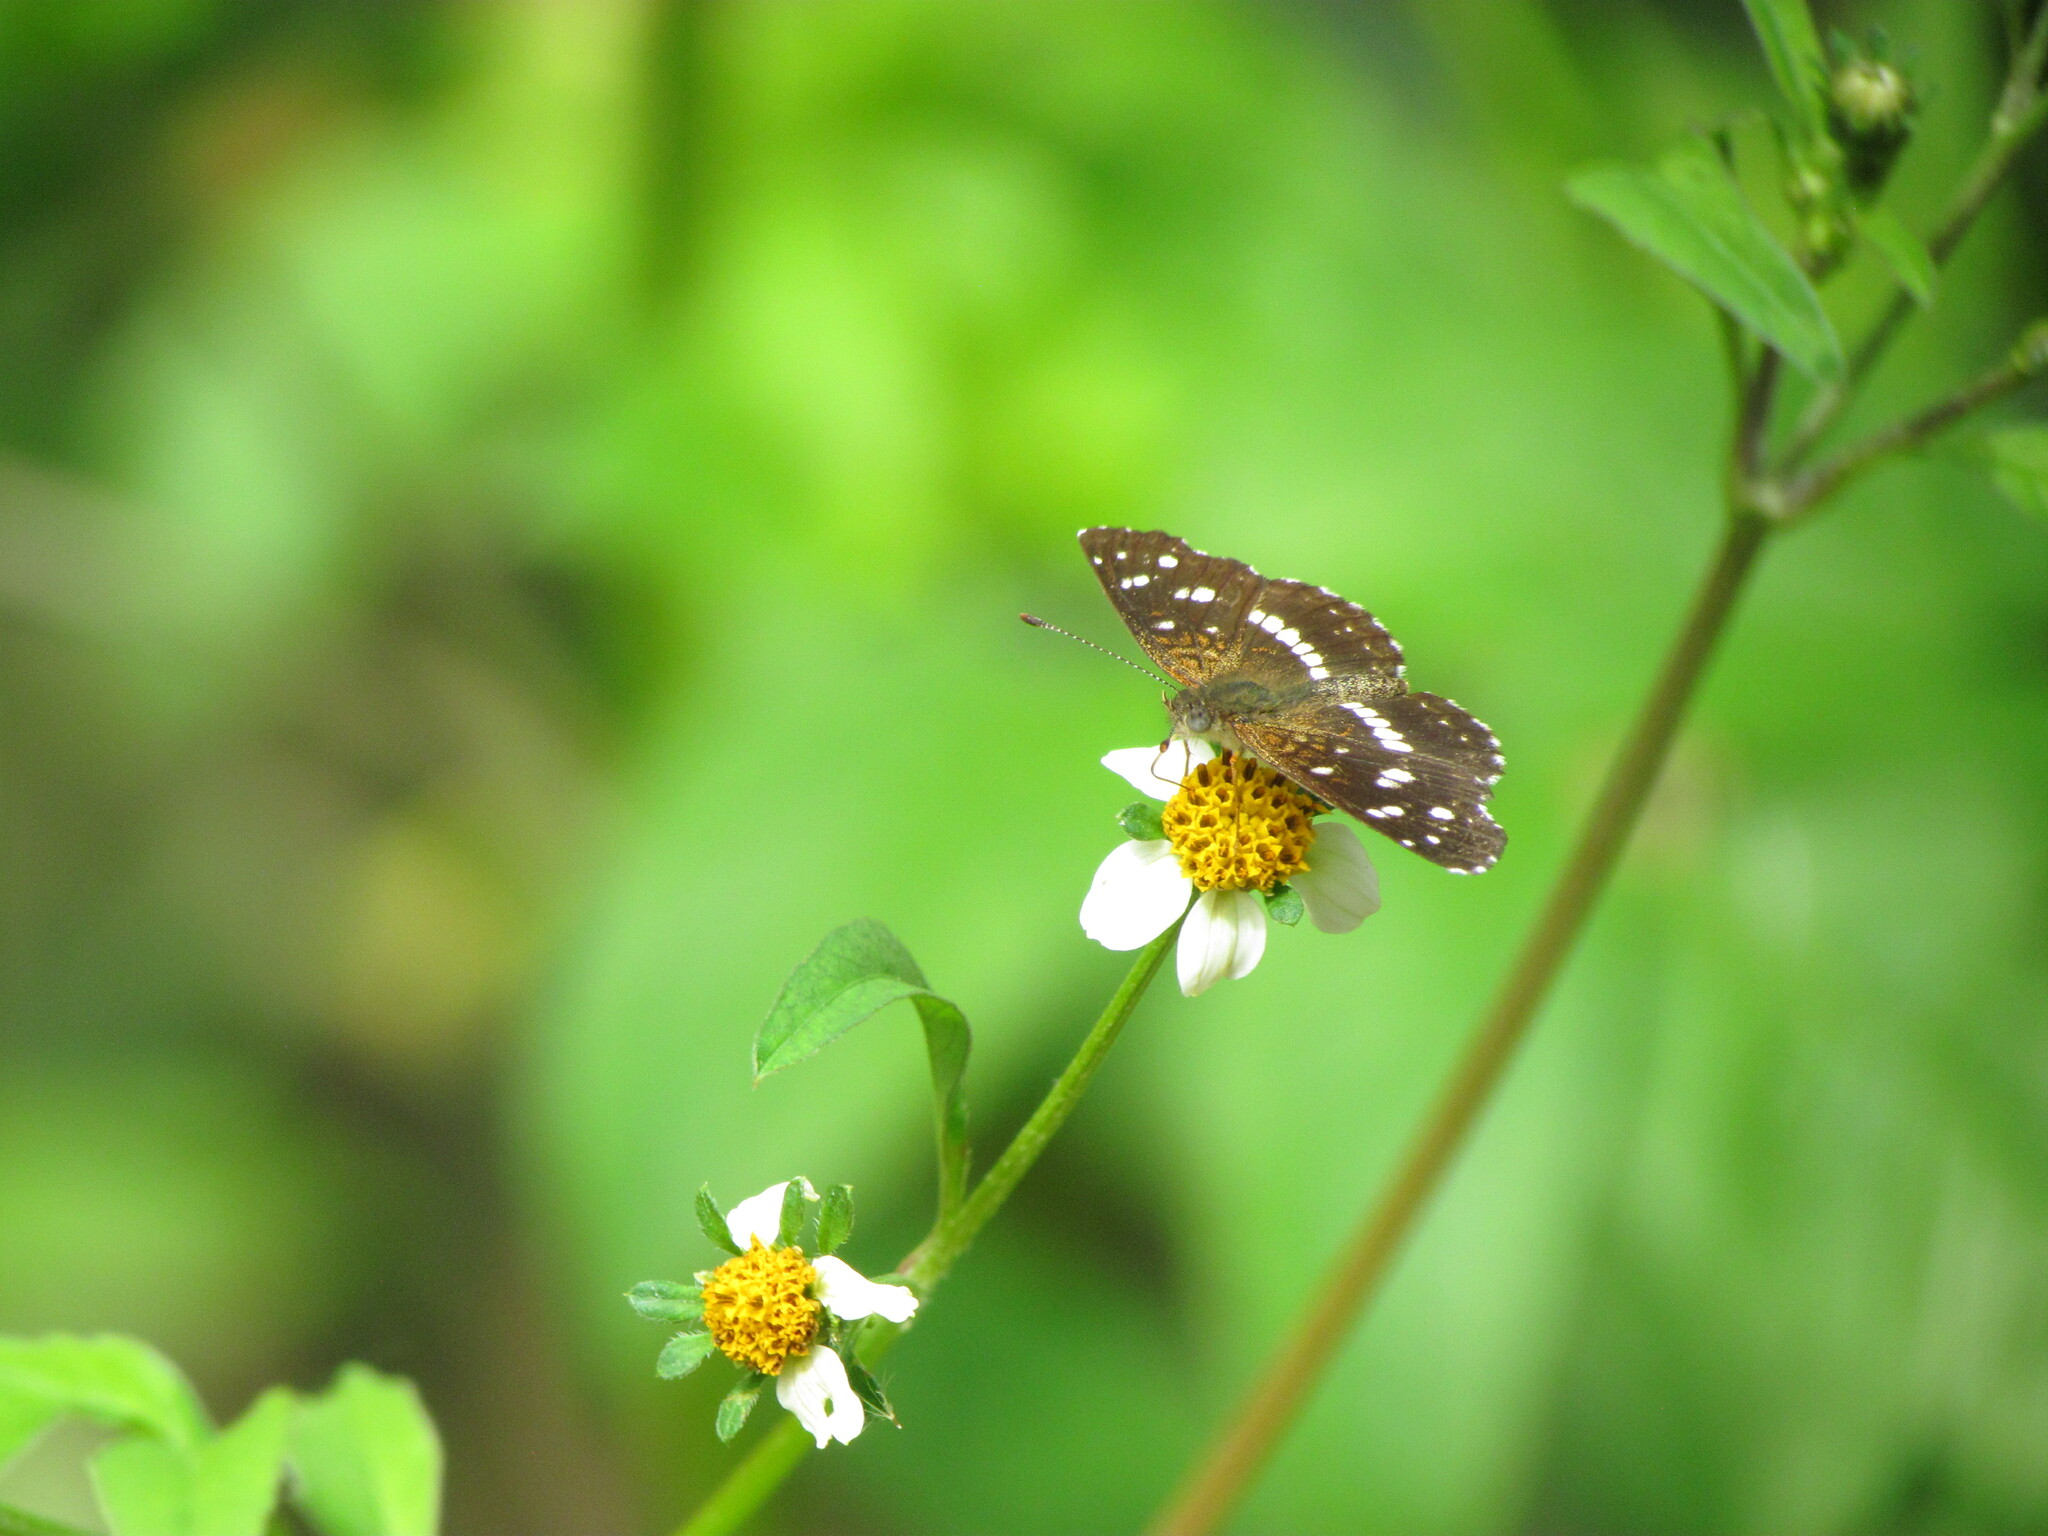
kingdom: Animalia
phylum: Arthropoda
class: Insecta
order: Lepidoptera
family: Nymphalidae
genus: Ortilia
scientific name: Ortilia ithra
